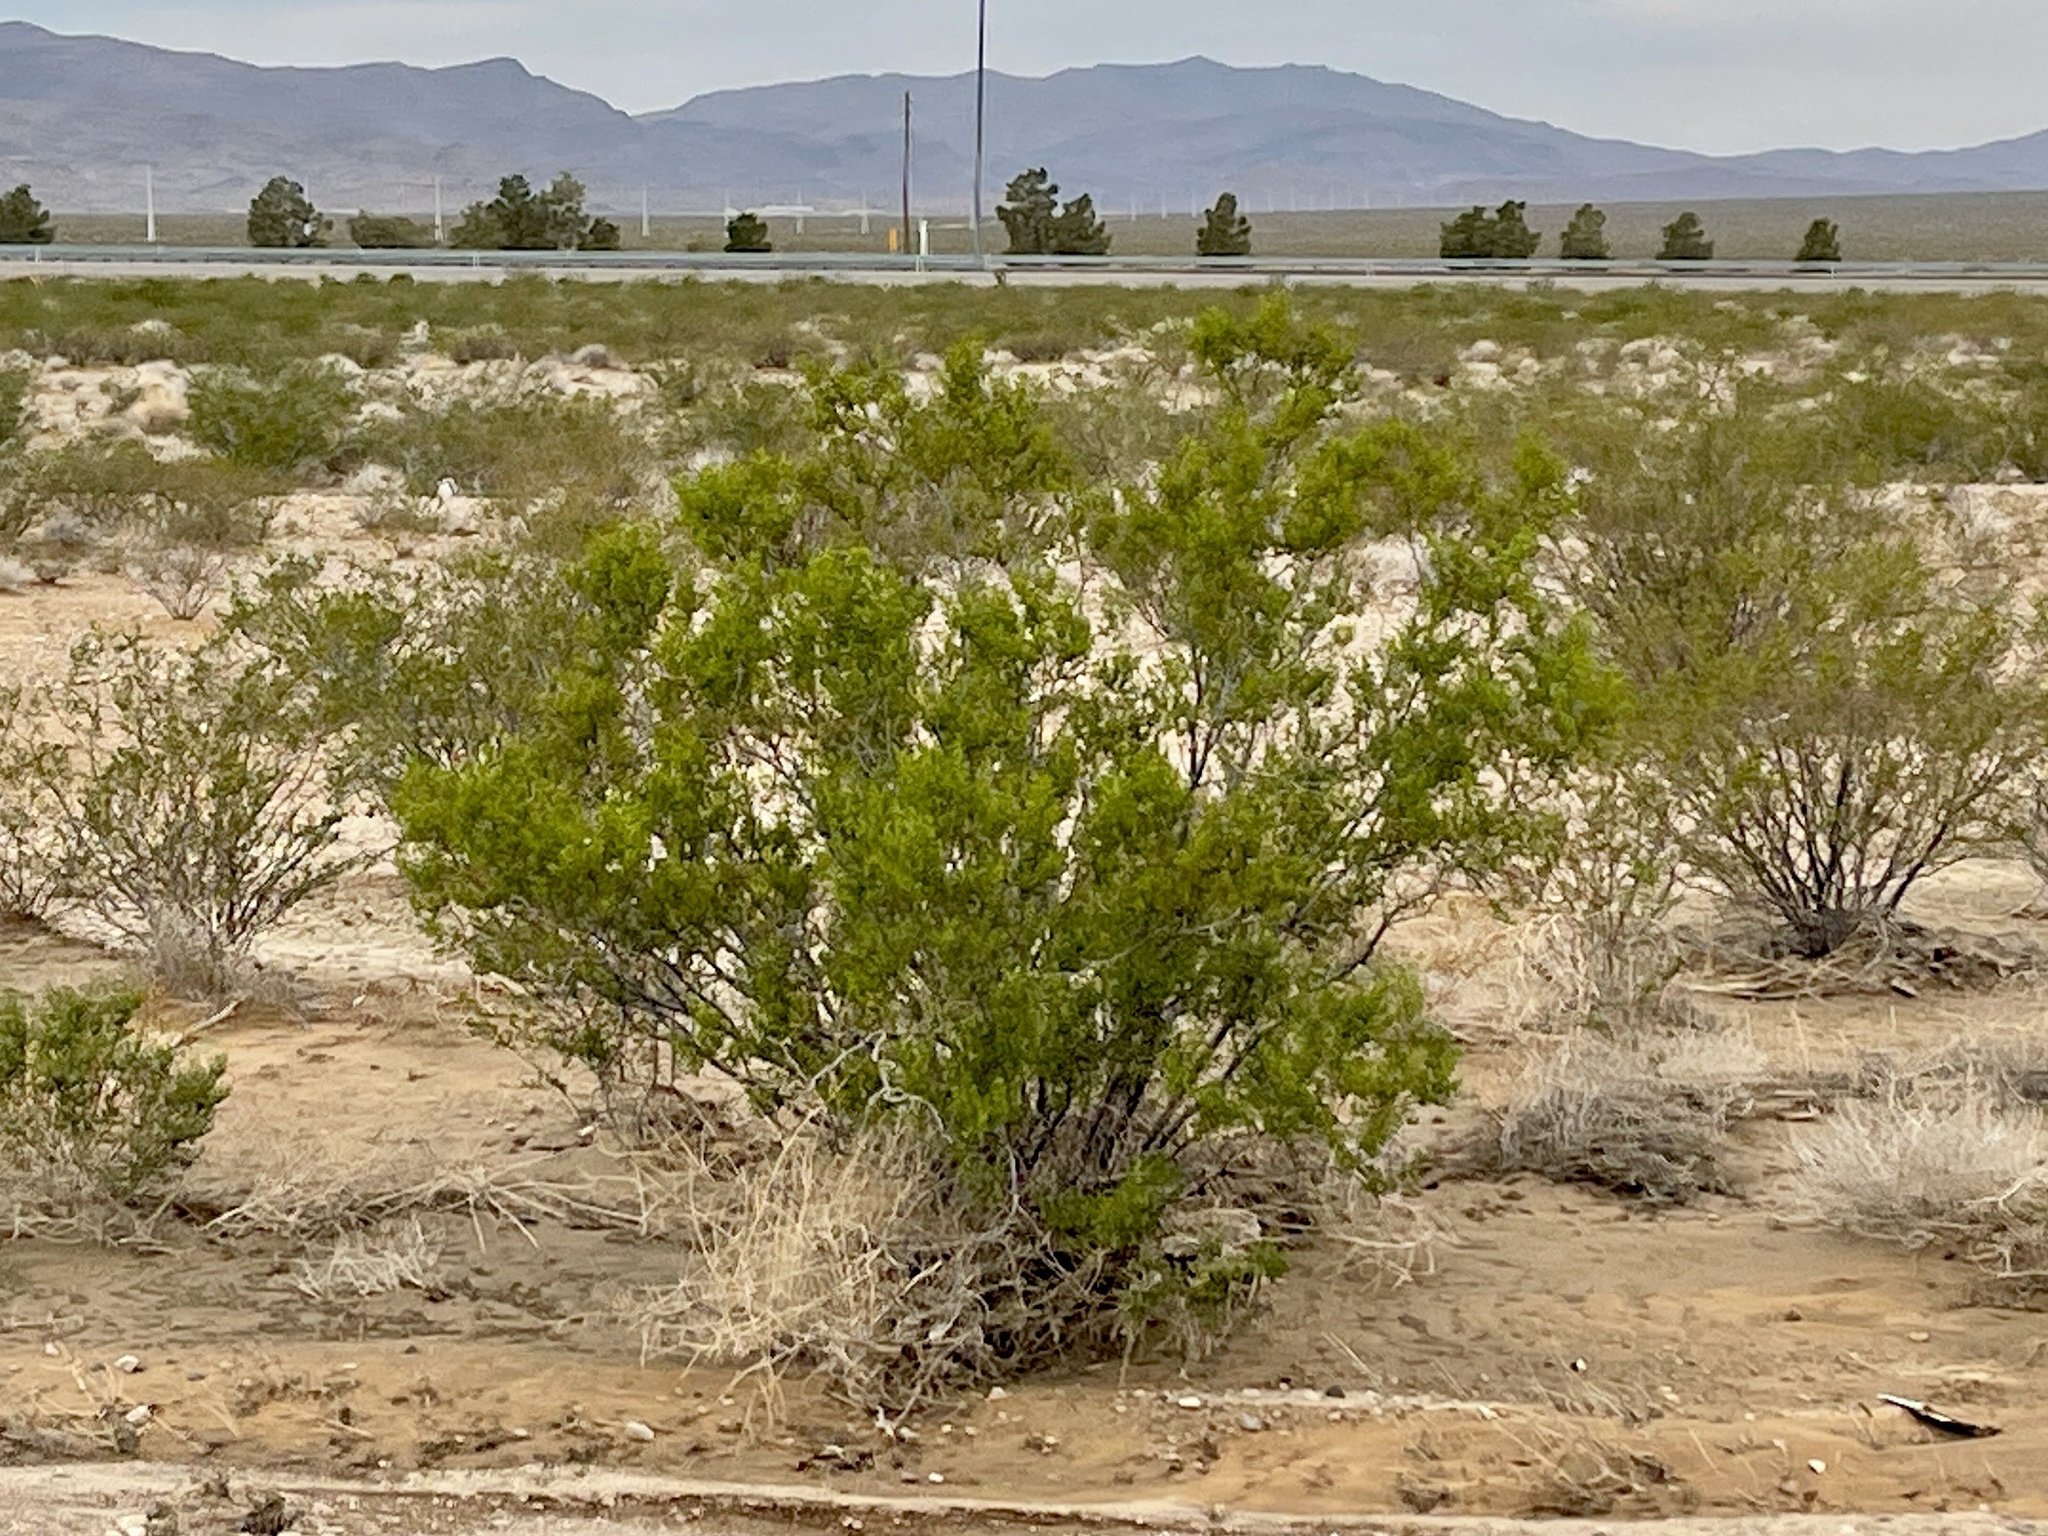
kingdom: Plantae
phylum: Tracheophyta
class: Magnoliopsida
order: Zygophyllales
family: Zygophyllaceae
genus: Larrea
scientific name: Larrea tridentata
